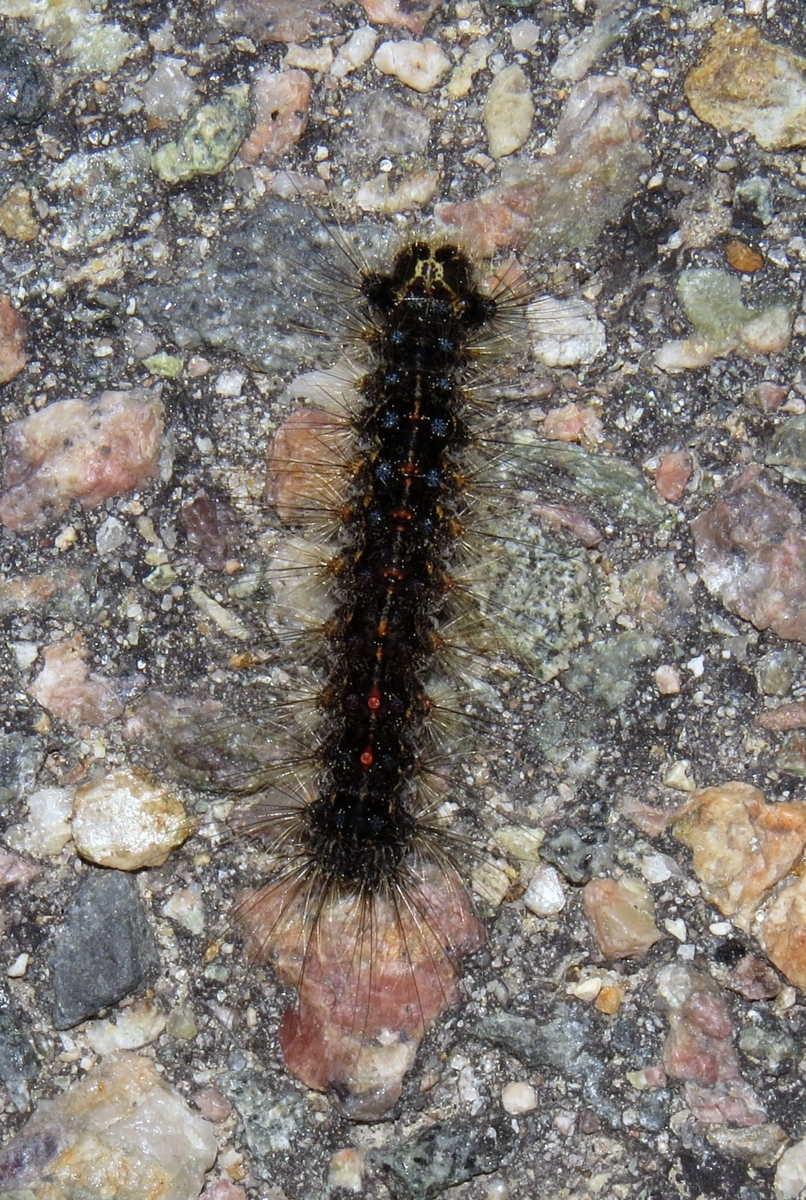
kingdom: Animalia
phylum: Arthropoda
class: Insecta
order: Lepidoptera
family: Erebidae
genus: Lymantria
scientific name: Lymantria dispar
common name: Gypsy moth
